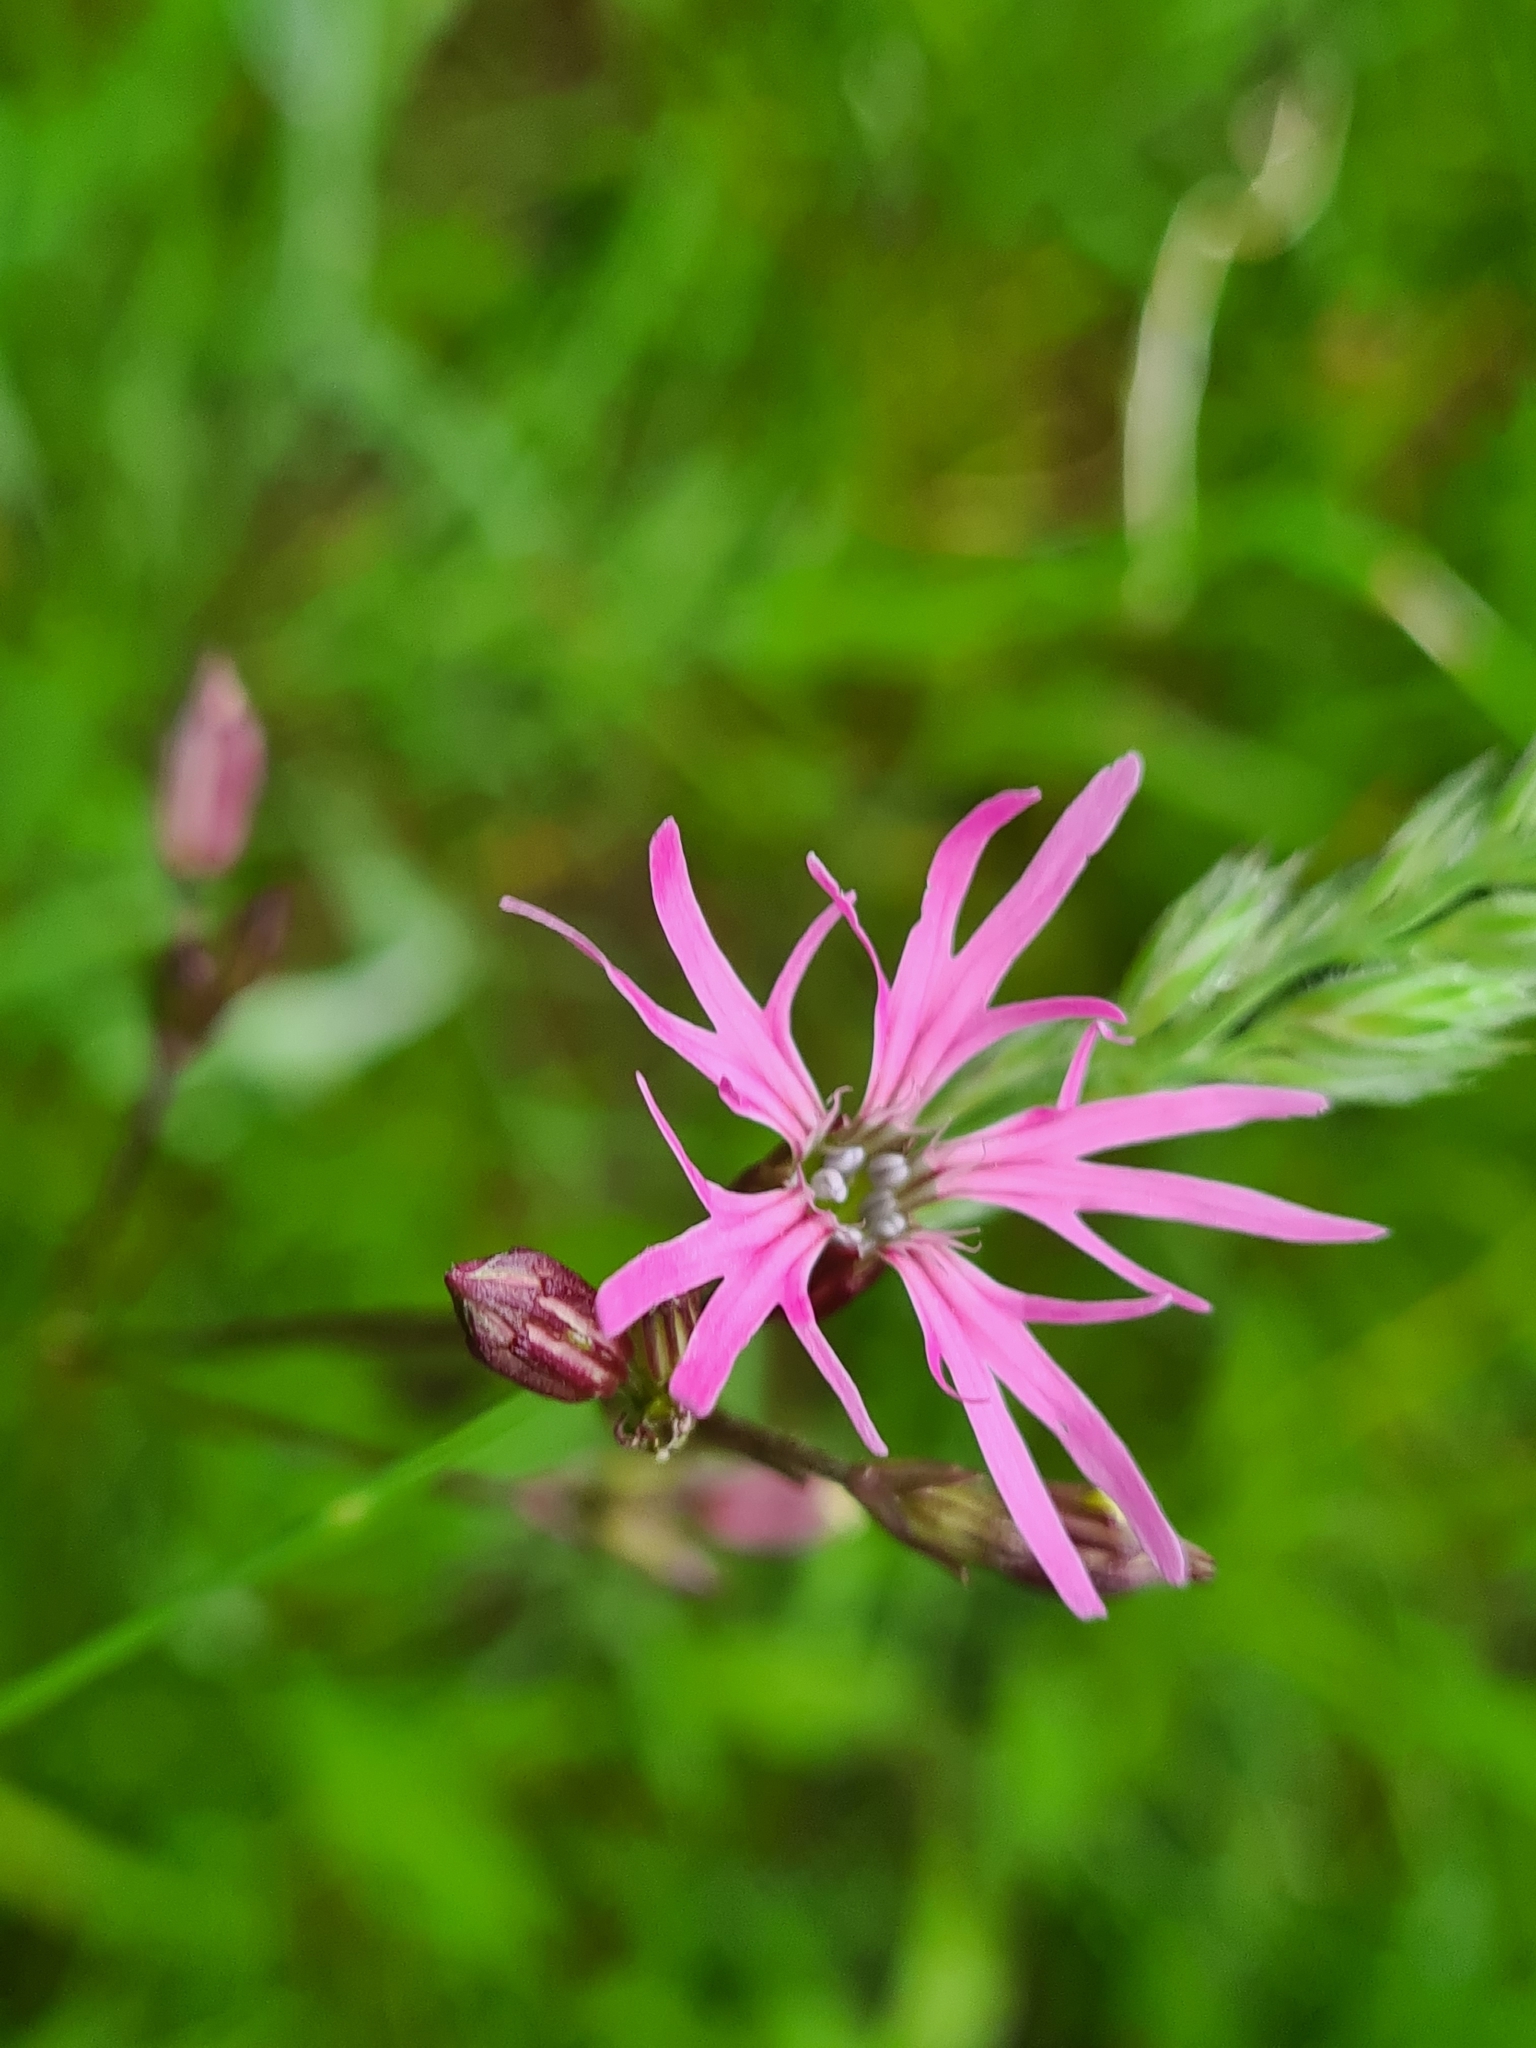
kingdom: Plantae
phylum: Tracheophyta
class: Magnoliopsida
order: Caryophyllales
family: Caryophyllaceae
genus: Silene
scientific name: Silene flos-cuculi
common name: Ragged-robin
